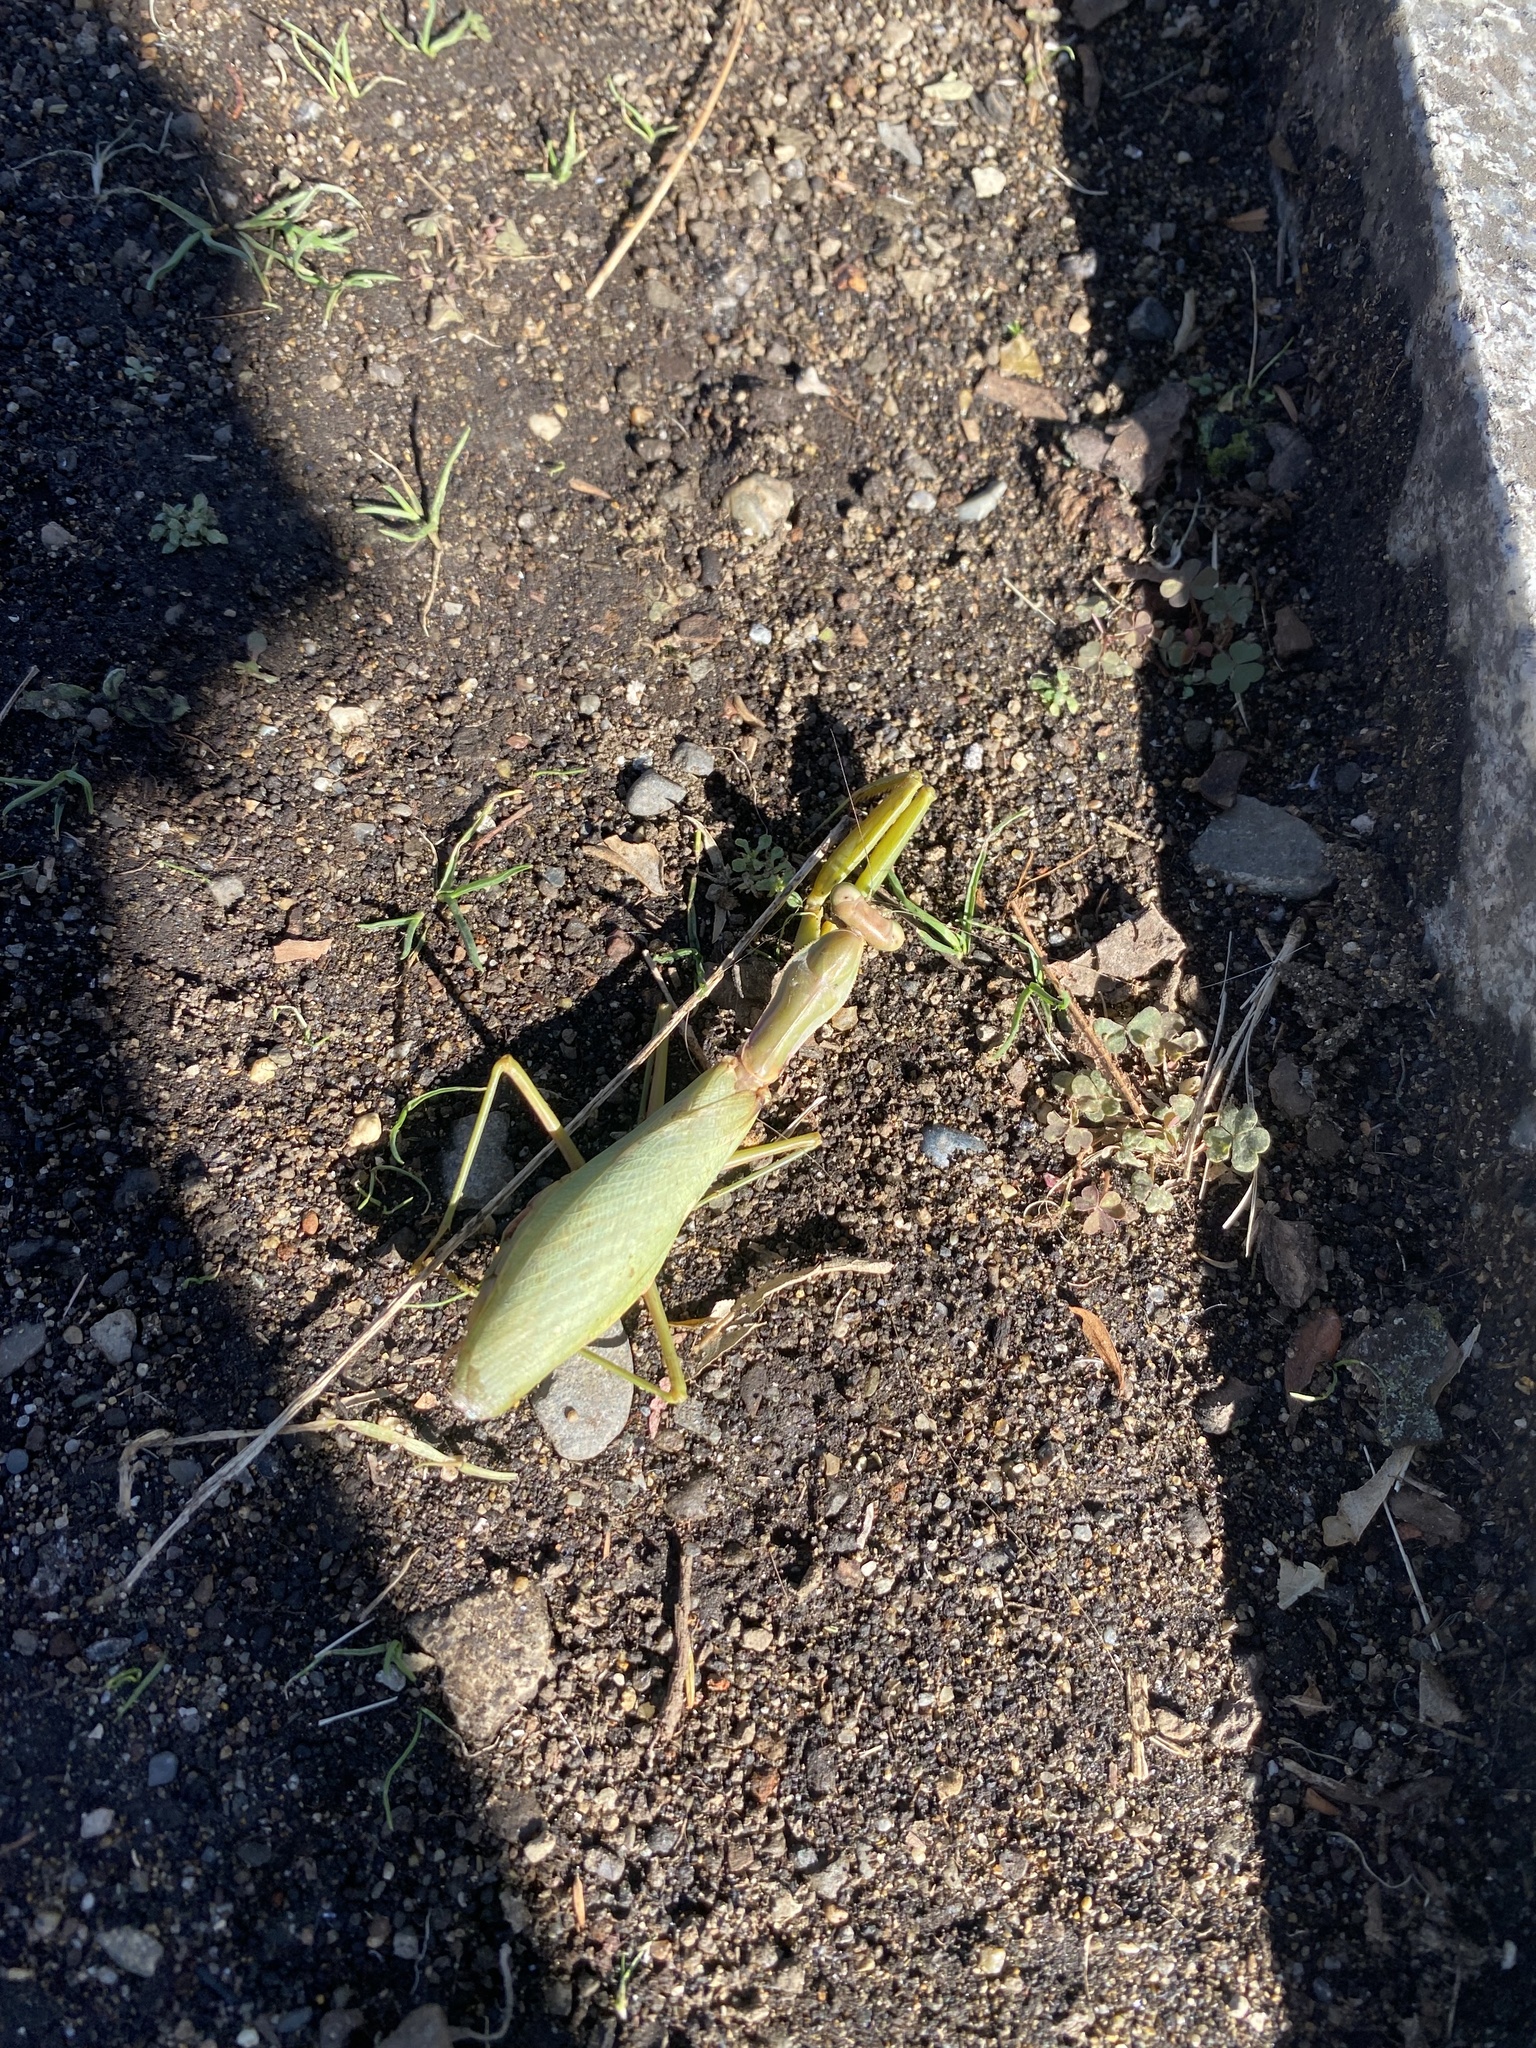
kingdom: Animalia
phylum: Arthropoda
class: Insecta
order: Mantodea
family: Mantidae
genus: Hierodula
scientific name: Hierodula patellifera
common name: Asian mantis
